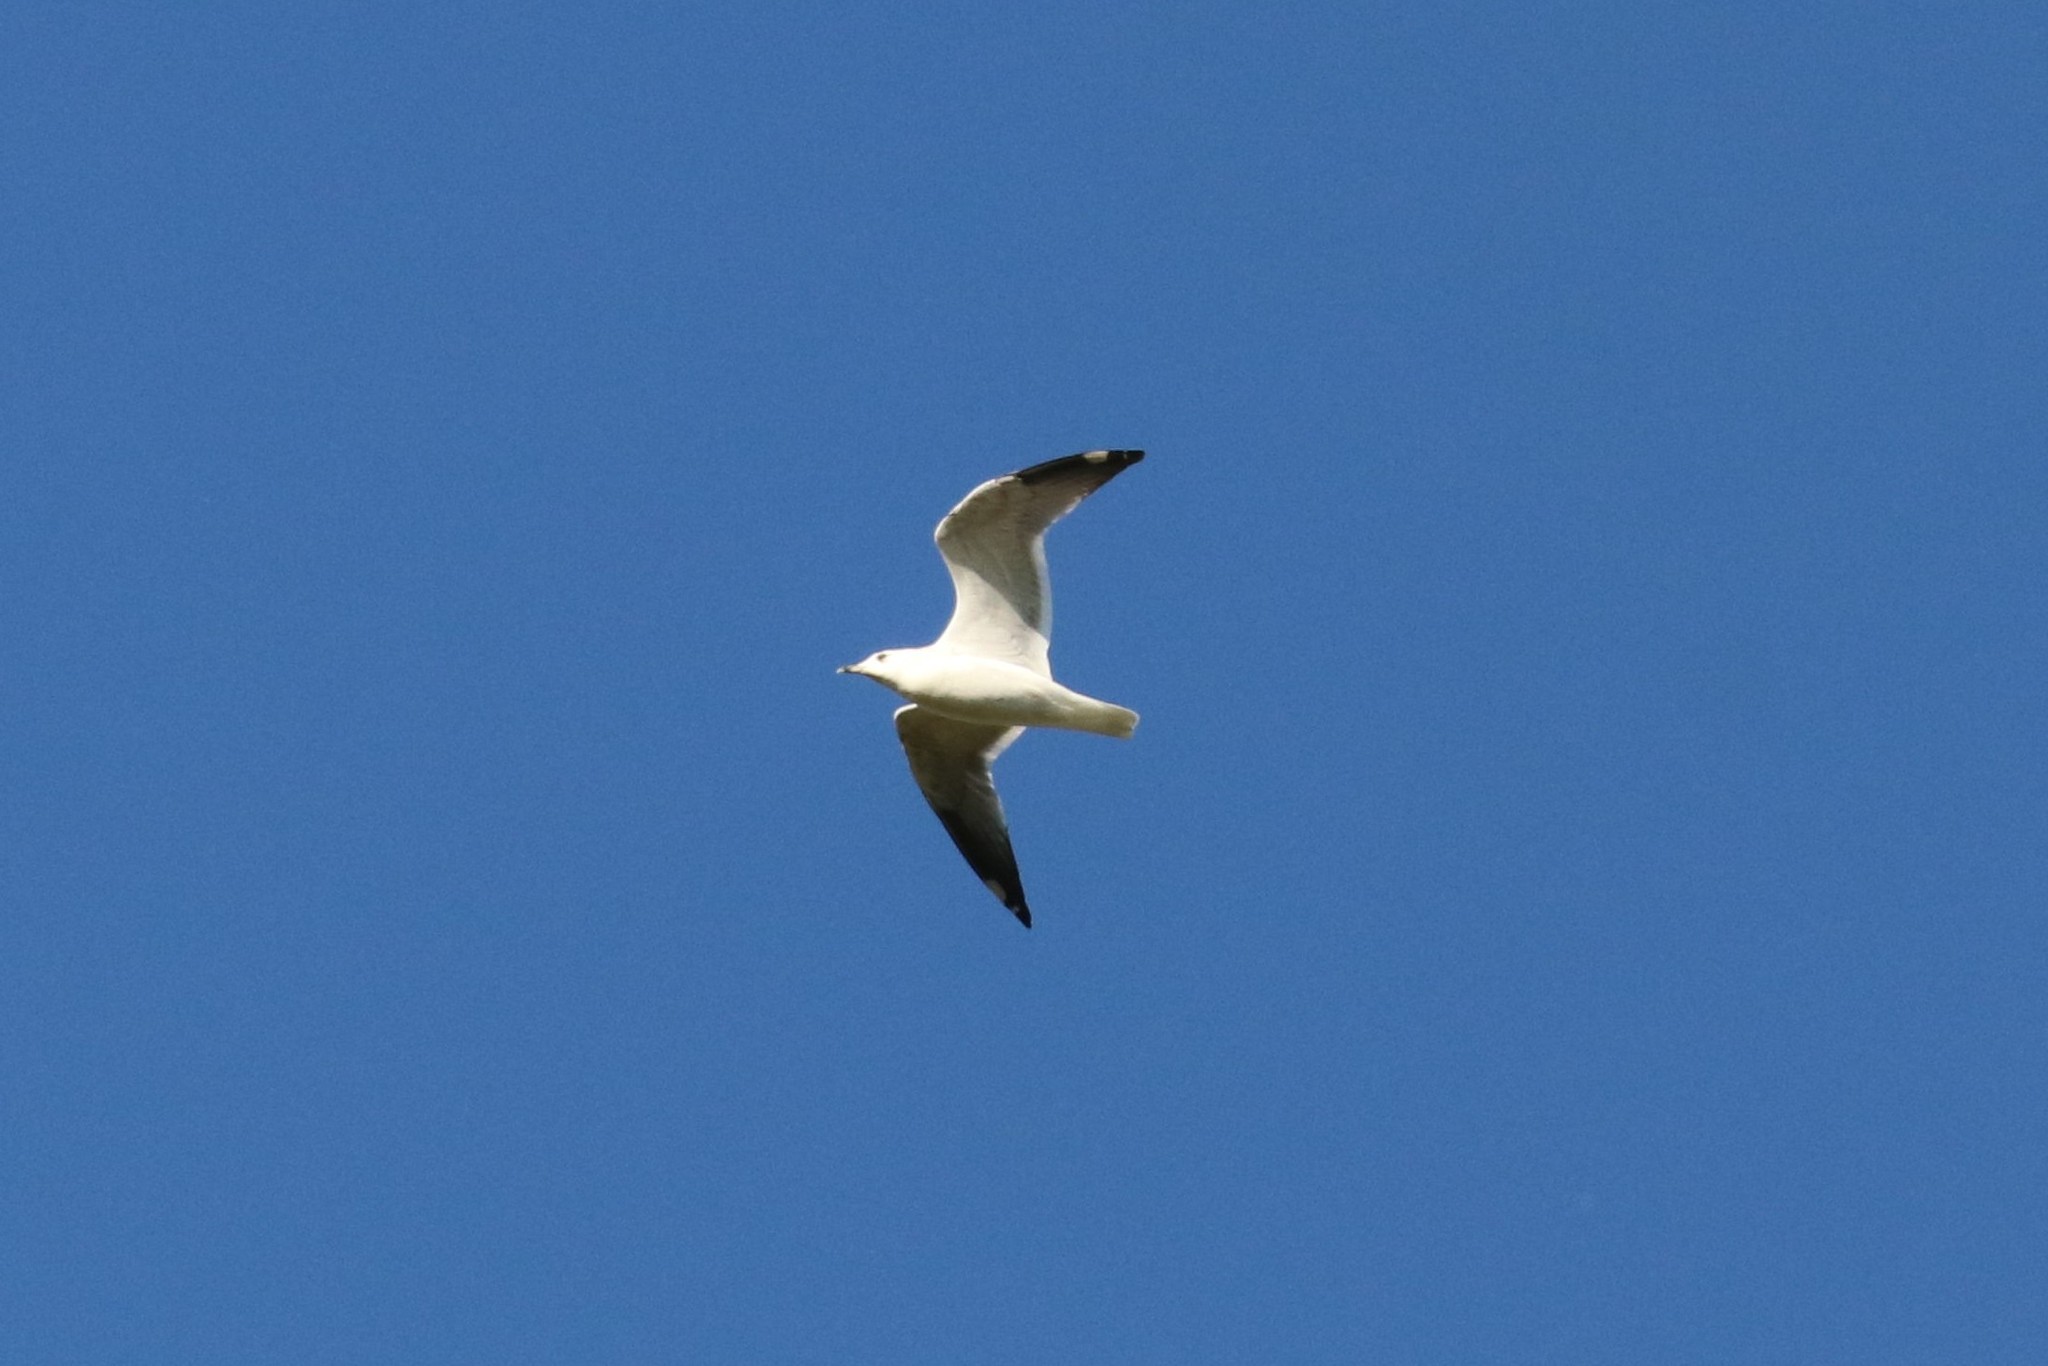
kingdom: Animalia
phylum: Chordata
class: Aves
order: Charadriiformes
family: Laridae
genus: Larus
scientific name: Larus canus
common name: Mew gull
